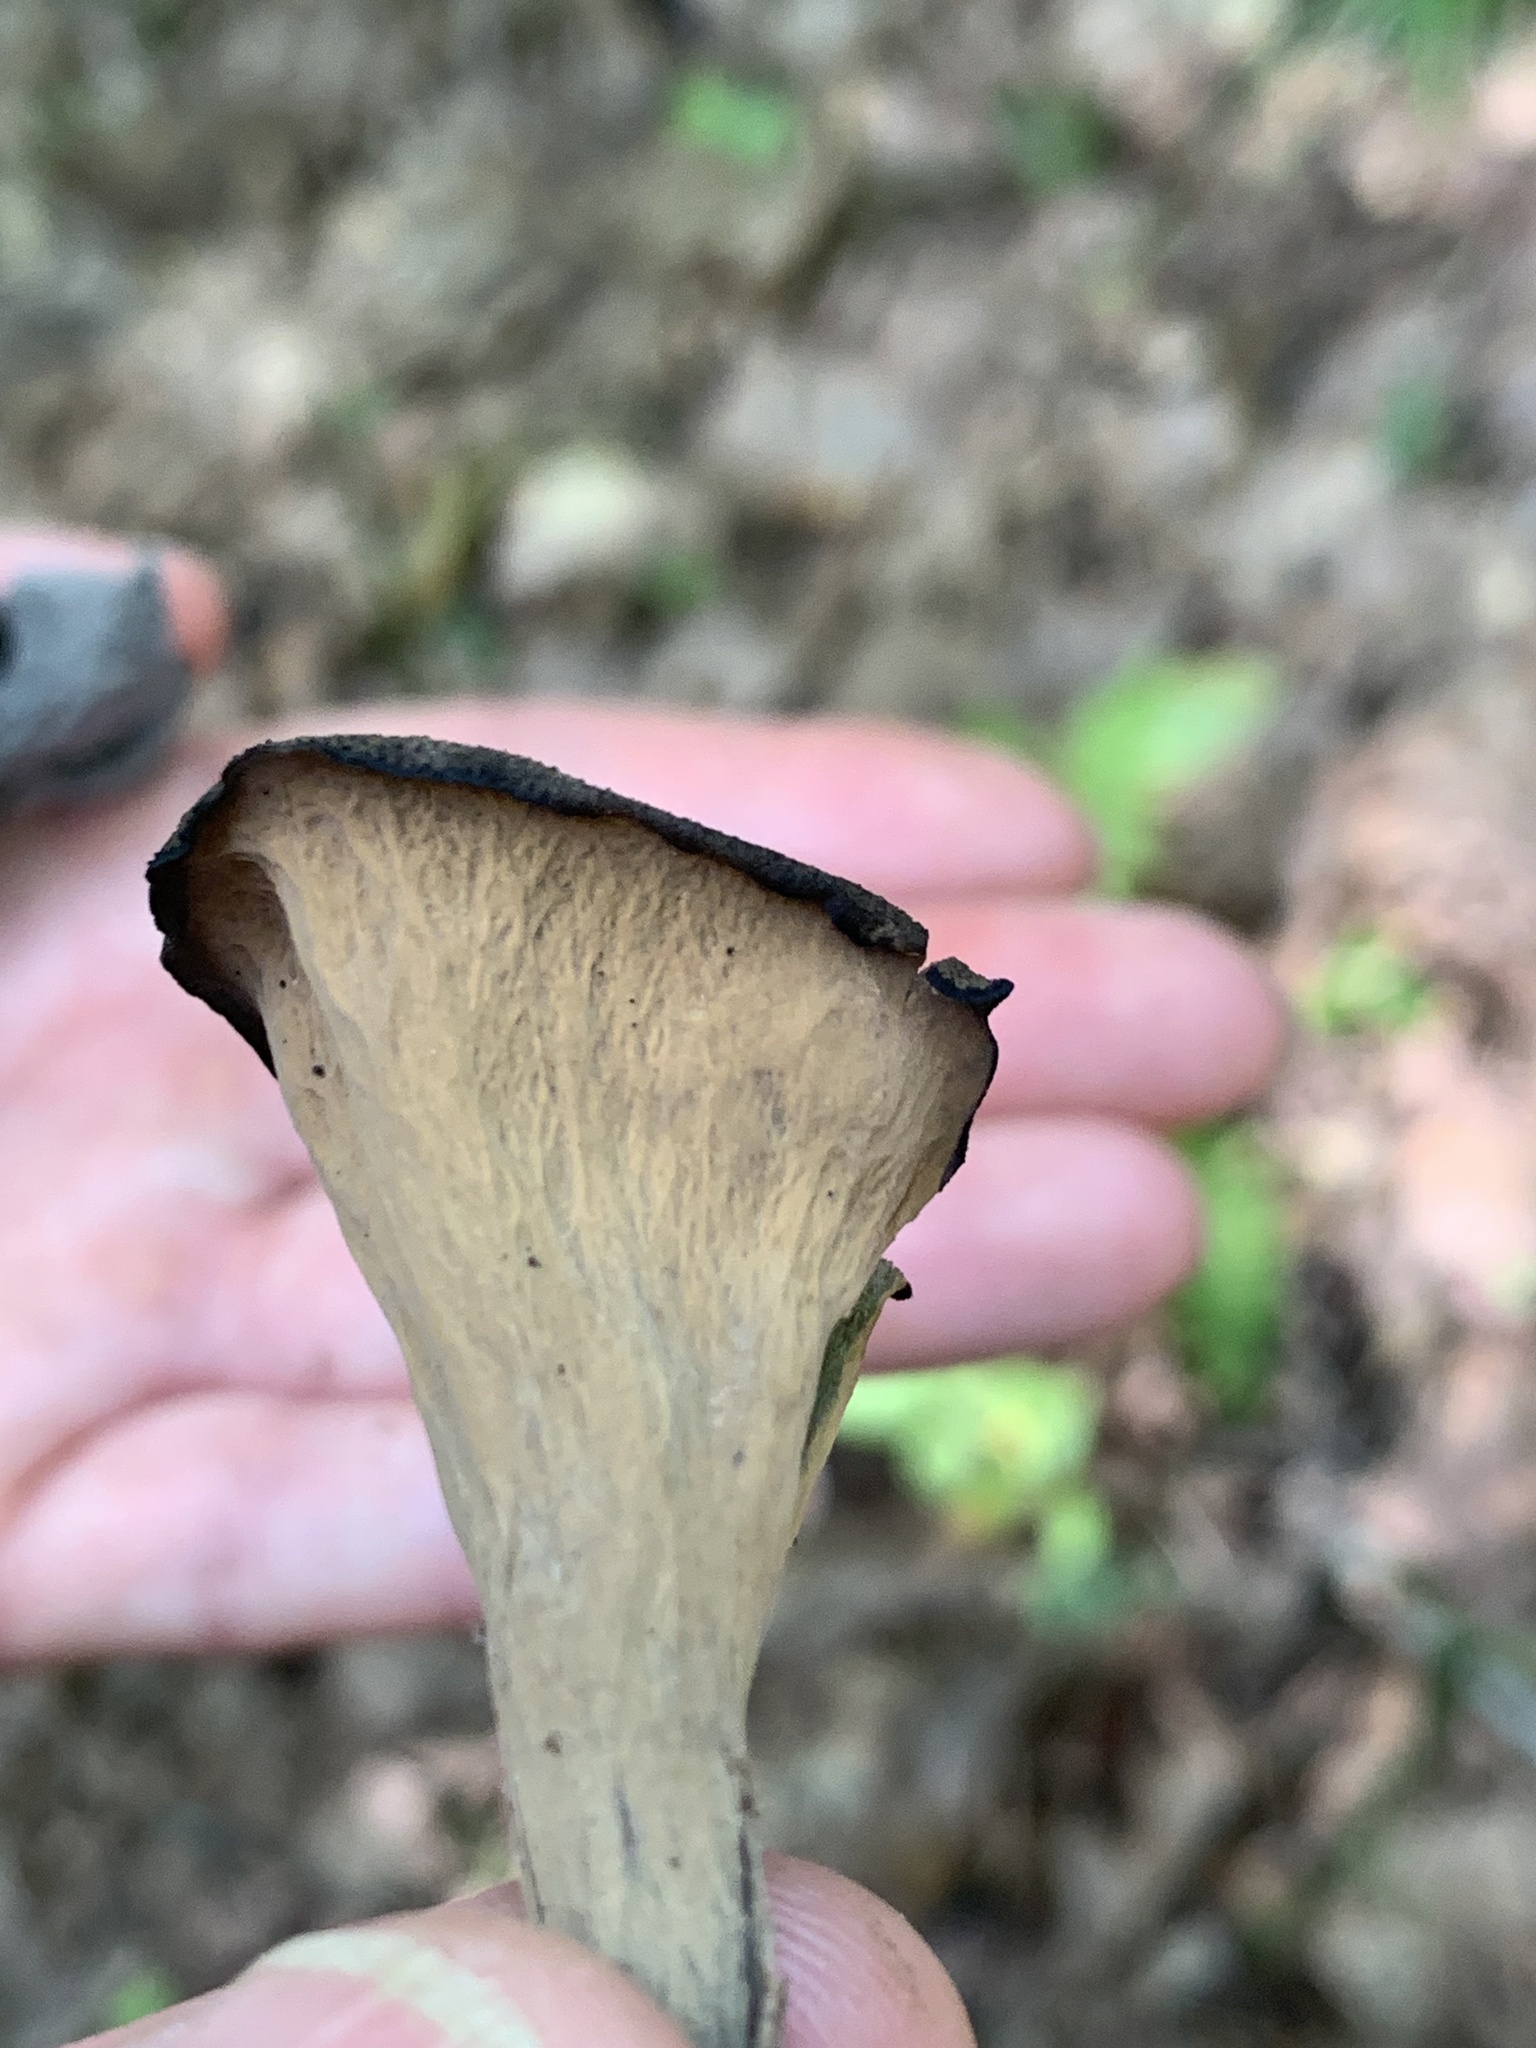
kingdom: Fungi
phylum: Basidiomycota
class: Agaricomycetes
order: Cantharellales
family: Hydnaceae
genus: Craterellus
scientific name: Craterellus cornucopioides
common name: Horn of plenty
